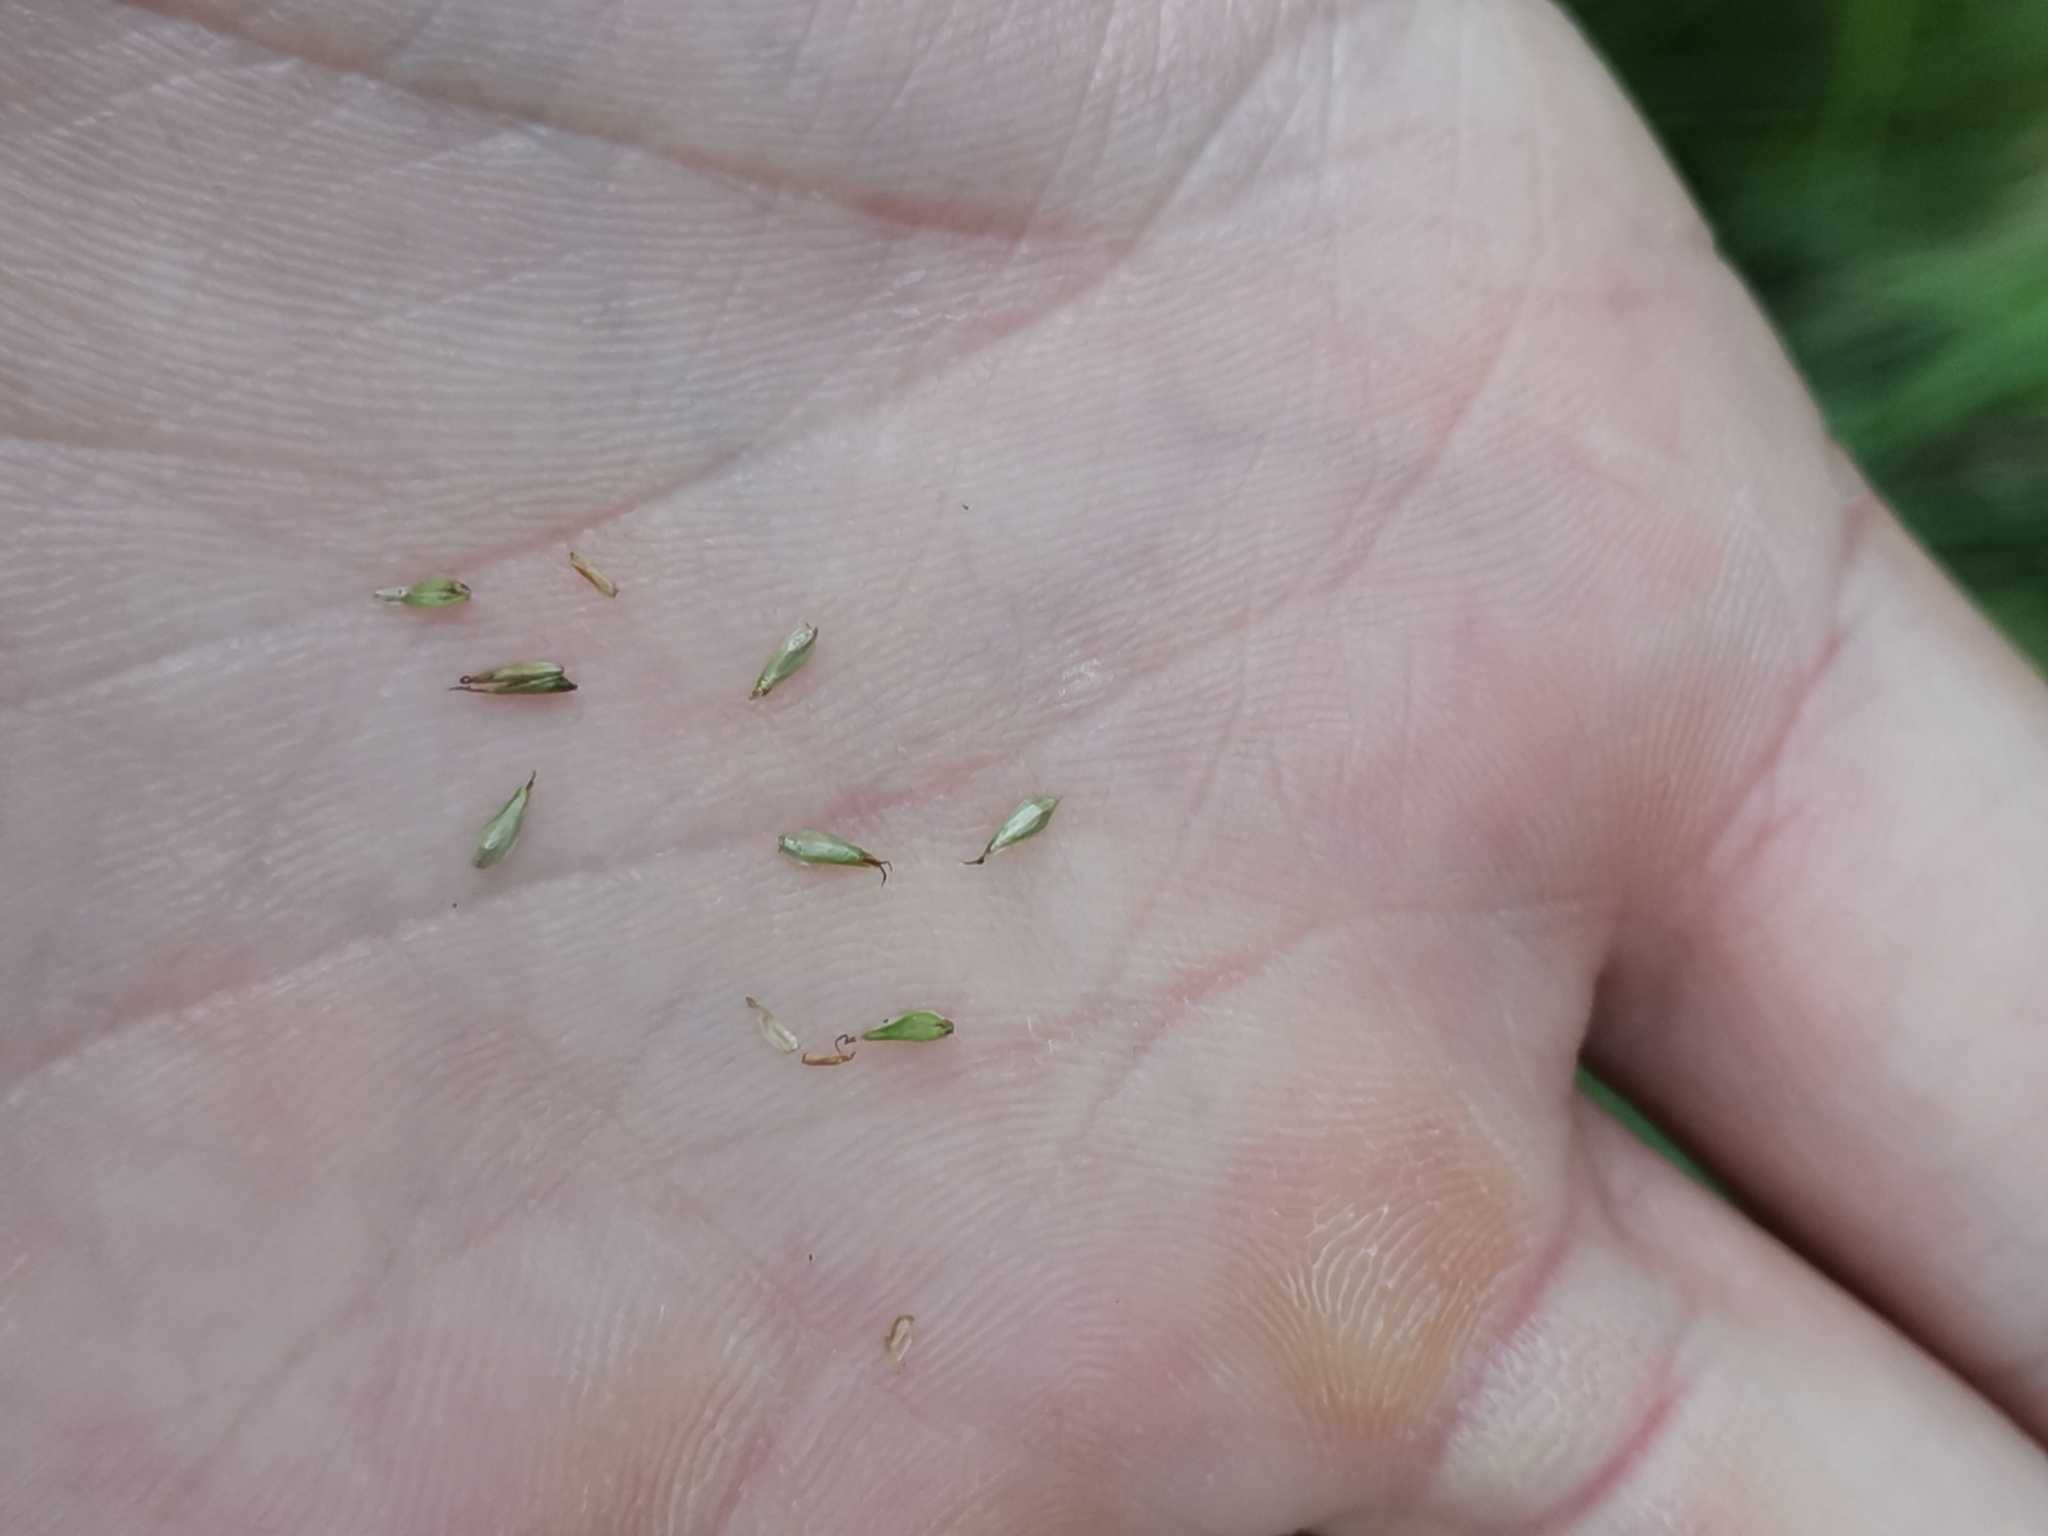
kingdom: Plantae
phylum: Tracheophyta
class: Liliopsida
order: Poales
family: Cyperaceae
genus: Carex
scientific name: Carex brizoides
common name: Quaking-grass sedge
